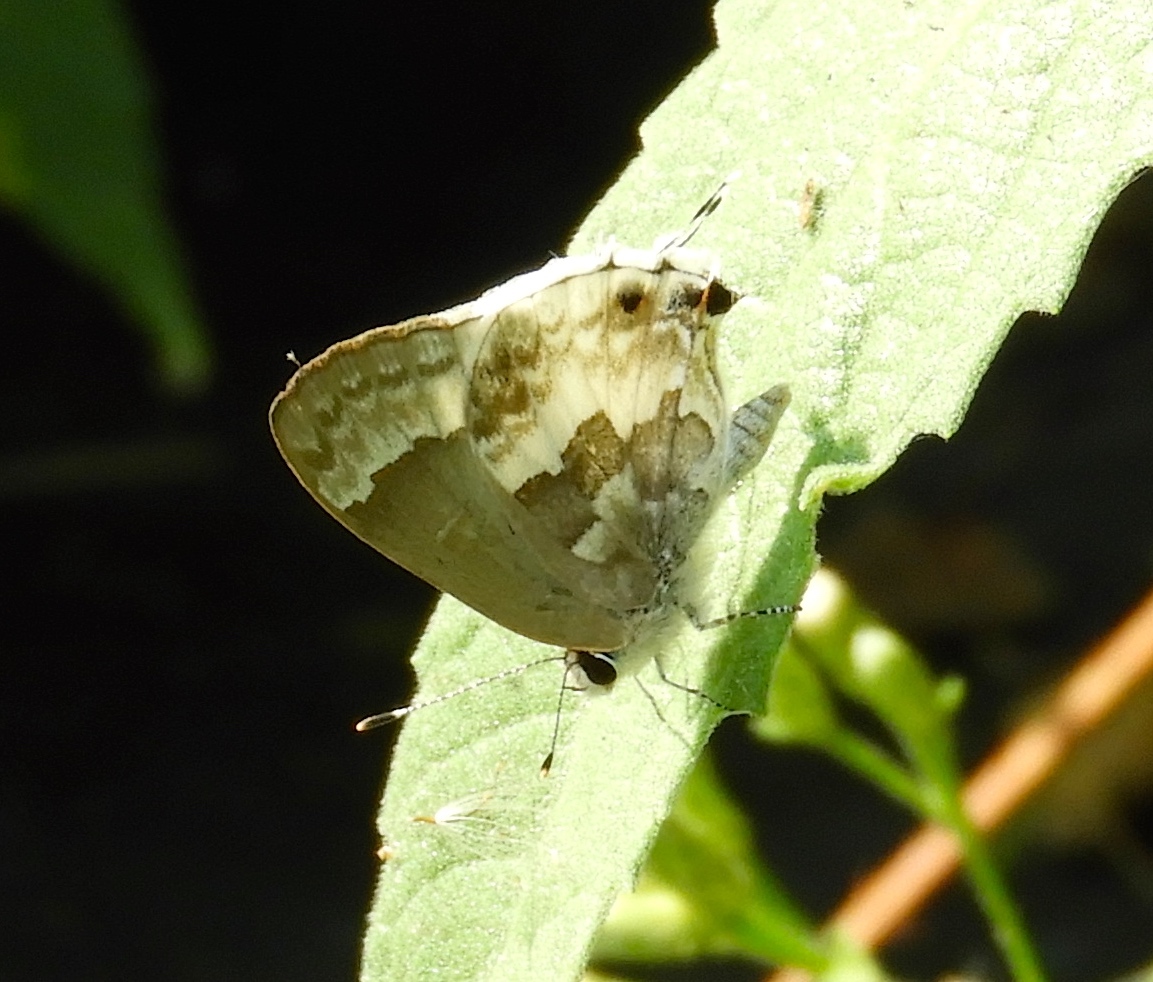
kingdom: Animalia
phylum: Arthropoda
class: Insecta
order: Lepidoptera
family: Lycaenidae
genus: Strymon
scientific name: Strymon albata
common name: White scrub-hairstreak
